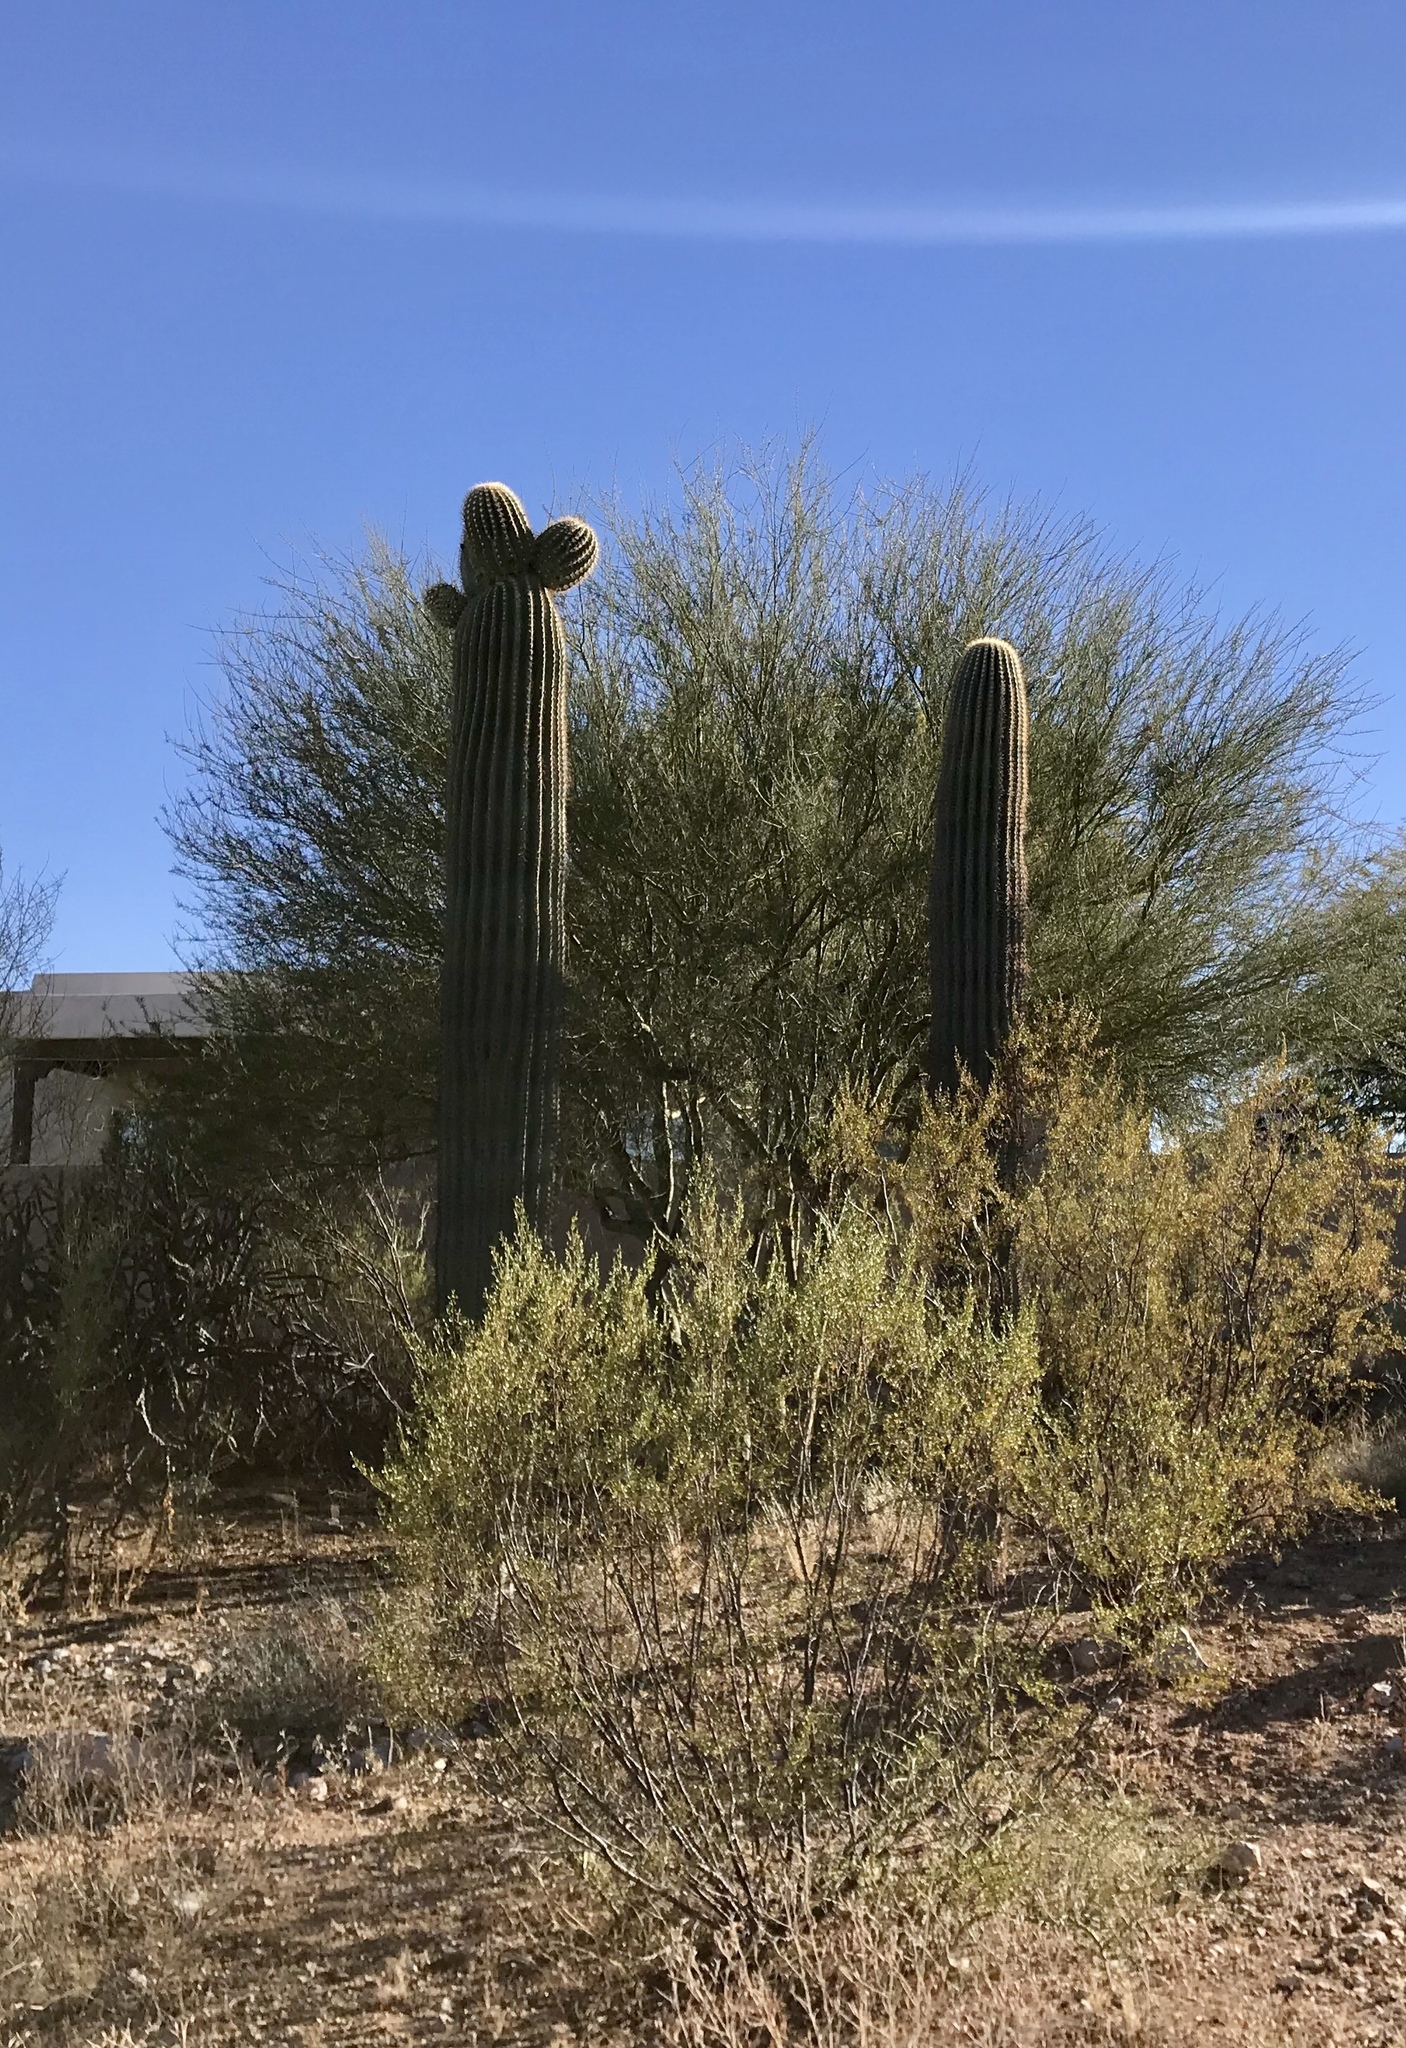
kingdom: Plantae
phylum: Tracheophyta
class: Magnoliopsida
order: Caryophyllales
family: Cactaceae
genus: Carnegiea
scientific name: Carnegiea gigantea
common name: Saguaro
